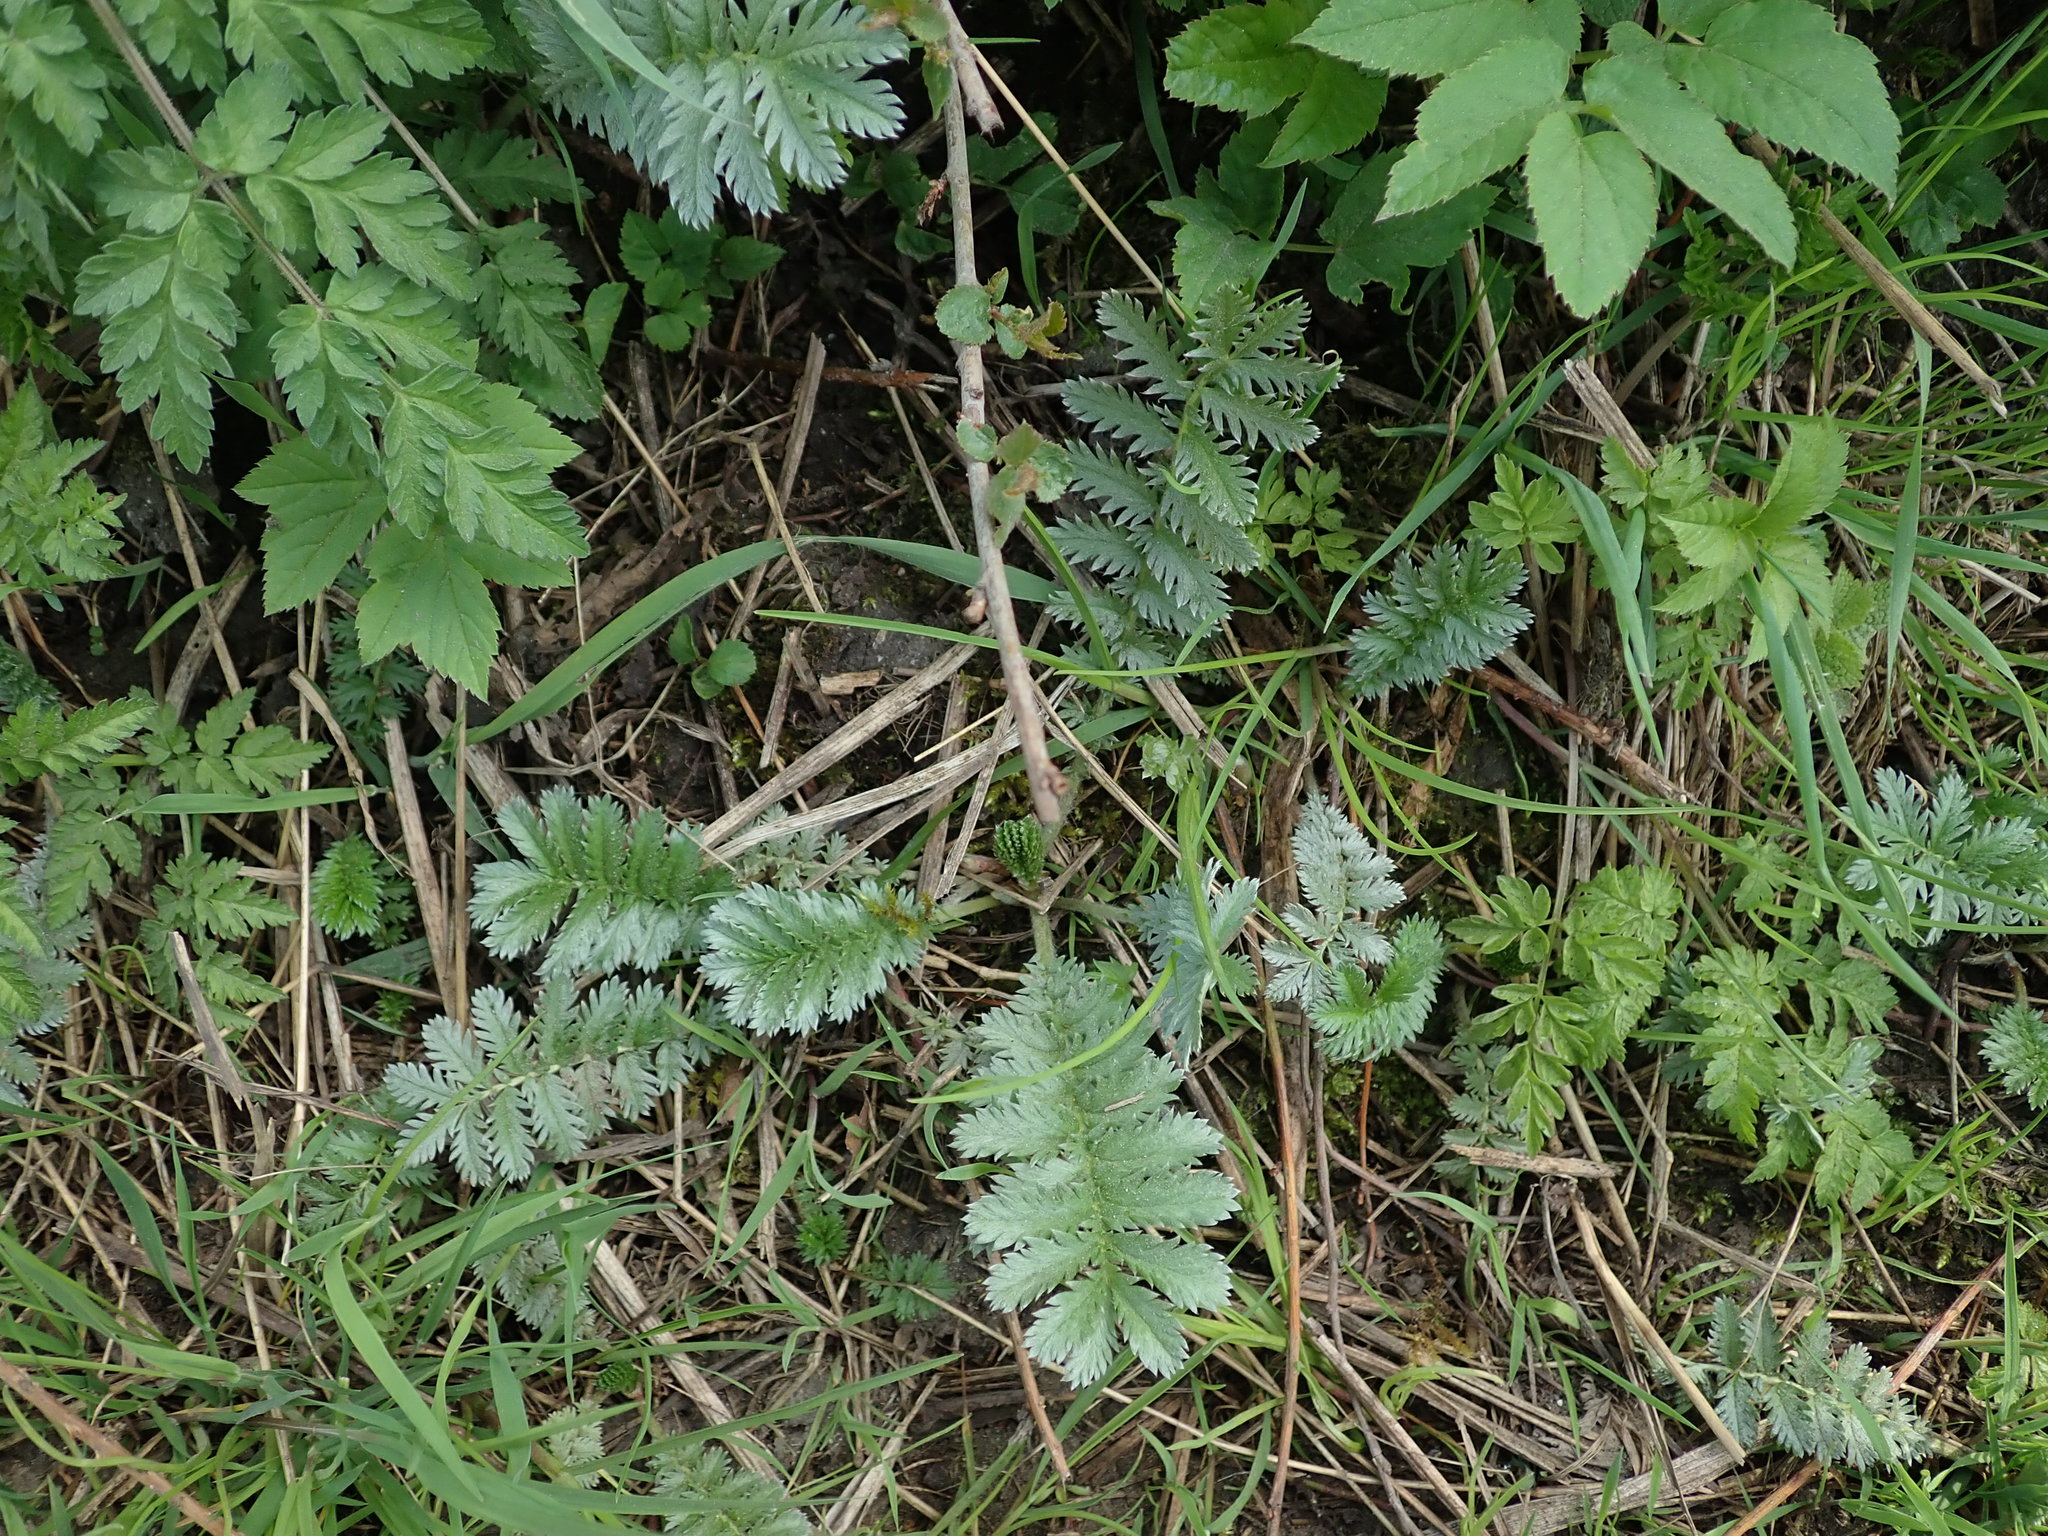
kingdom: Plantae
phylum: Tracheophyta
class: Magnoliopsida
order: Rosales
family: Rosaceae
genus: Argentina
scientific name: Argentina anserina
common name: Common silverweed
